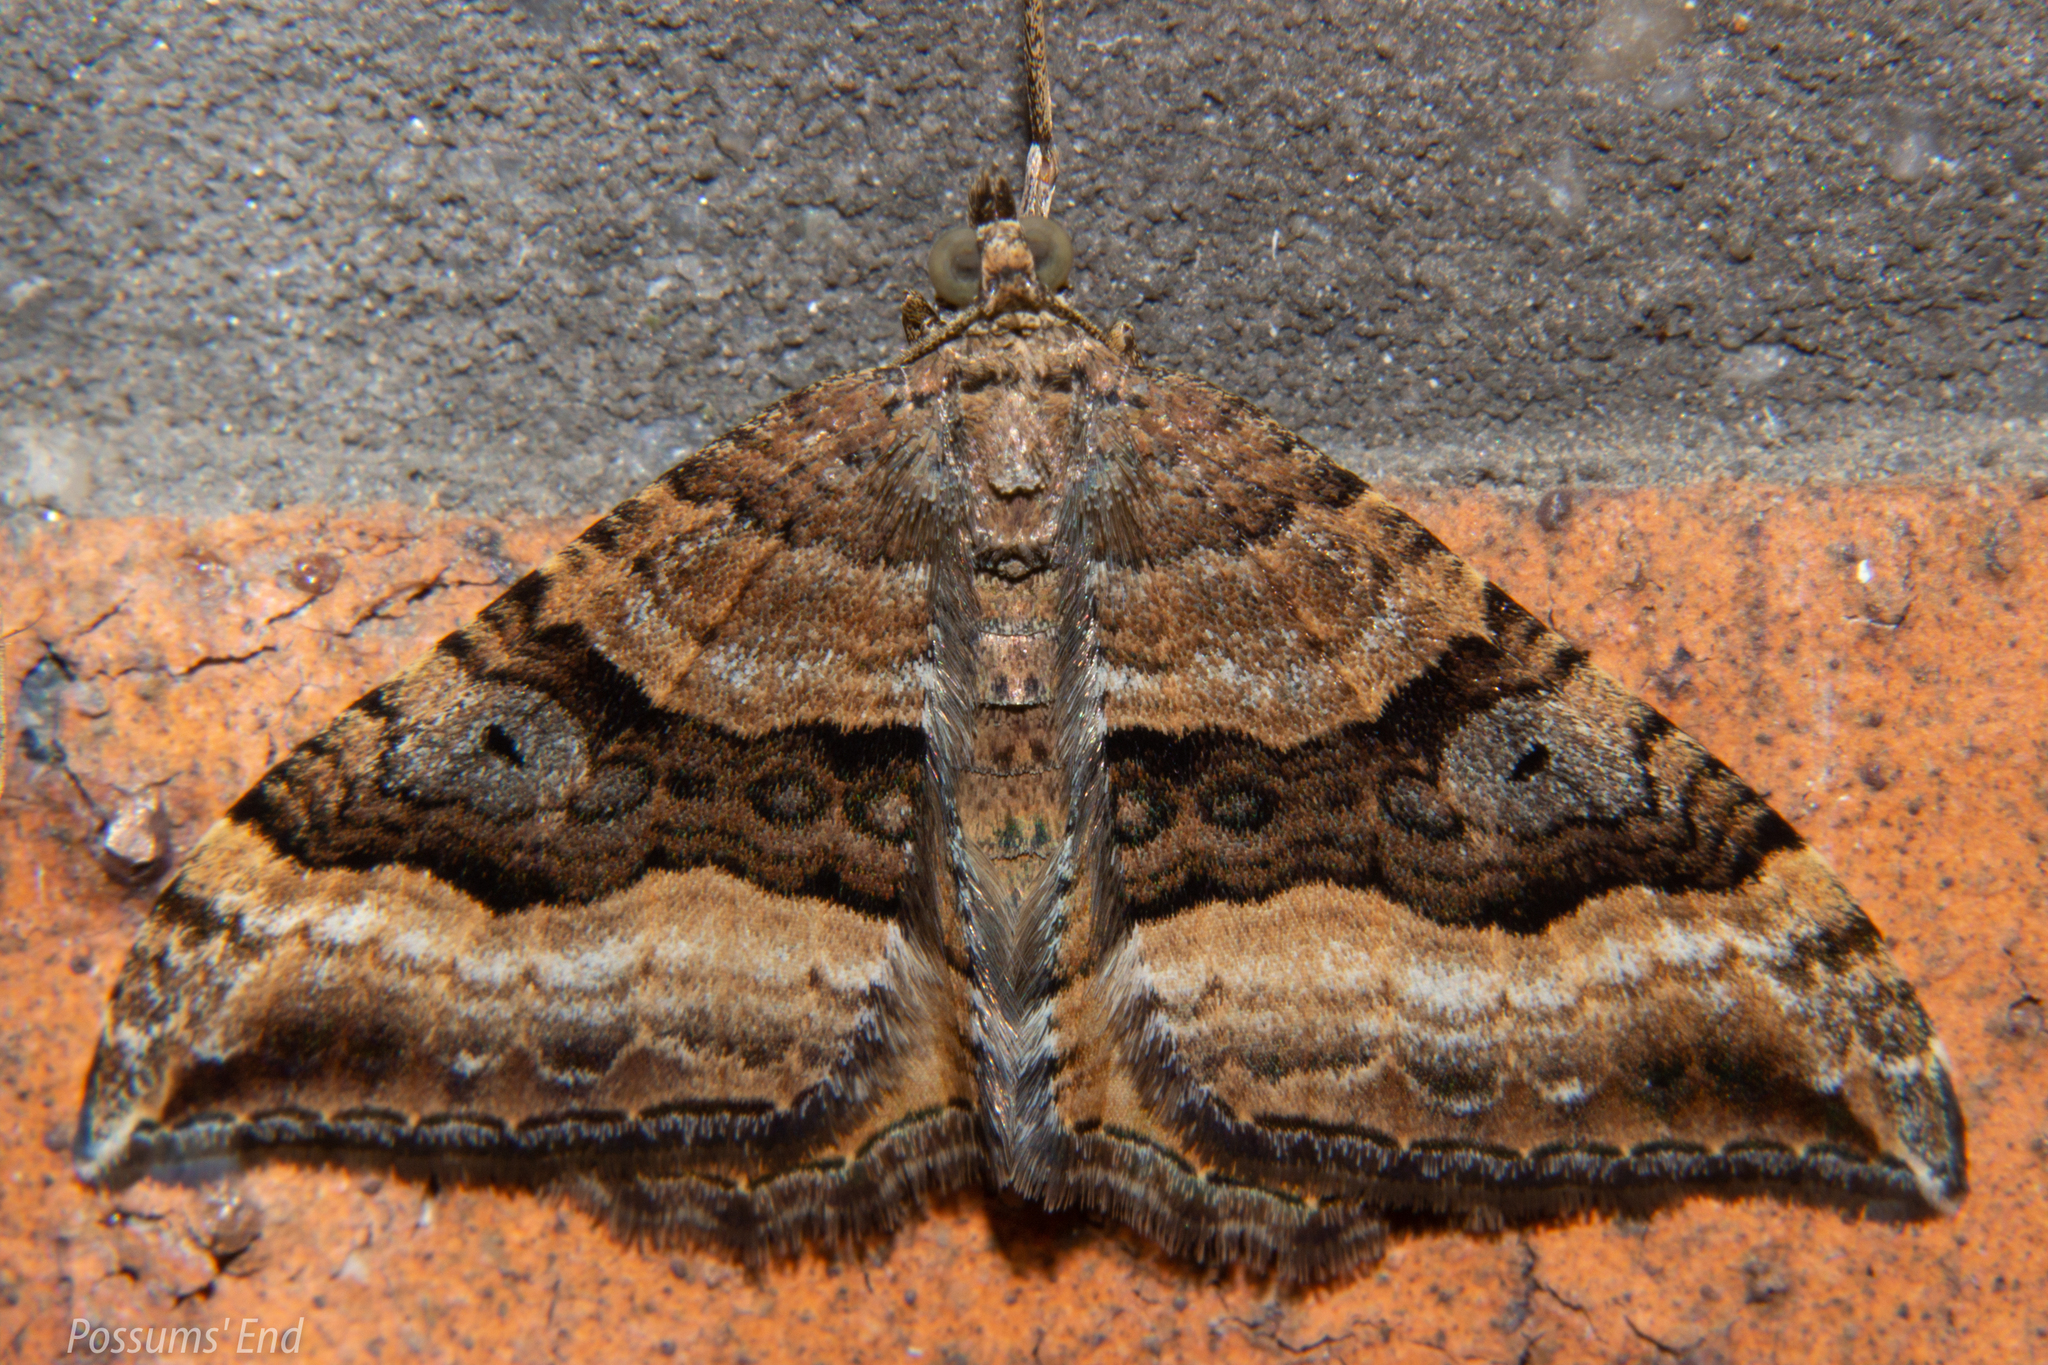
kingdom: Animalia
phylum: Arthropoda
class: Insecta
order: Lepidoptera
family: Geometridae
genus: Hydriomena
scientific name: Hydriomena deltoidata
